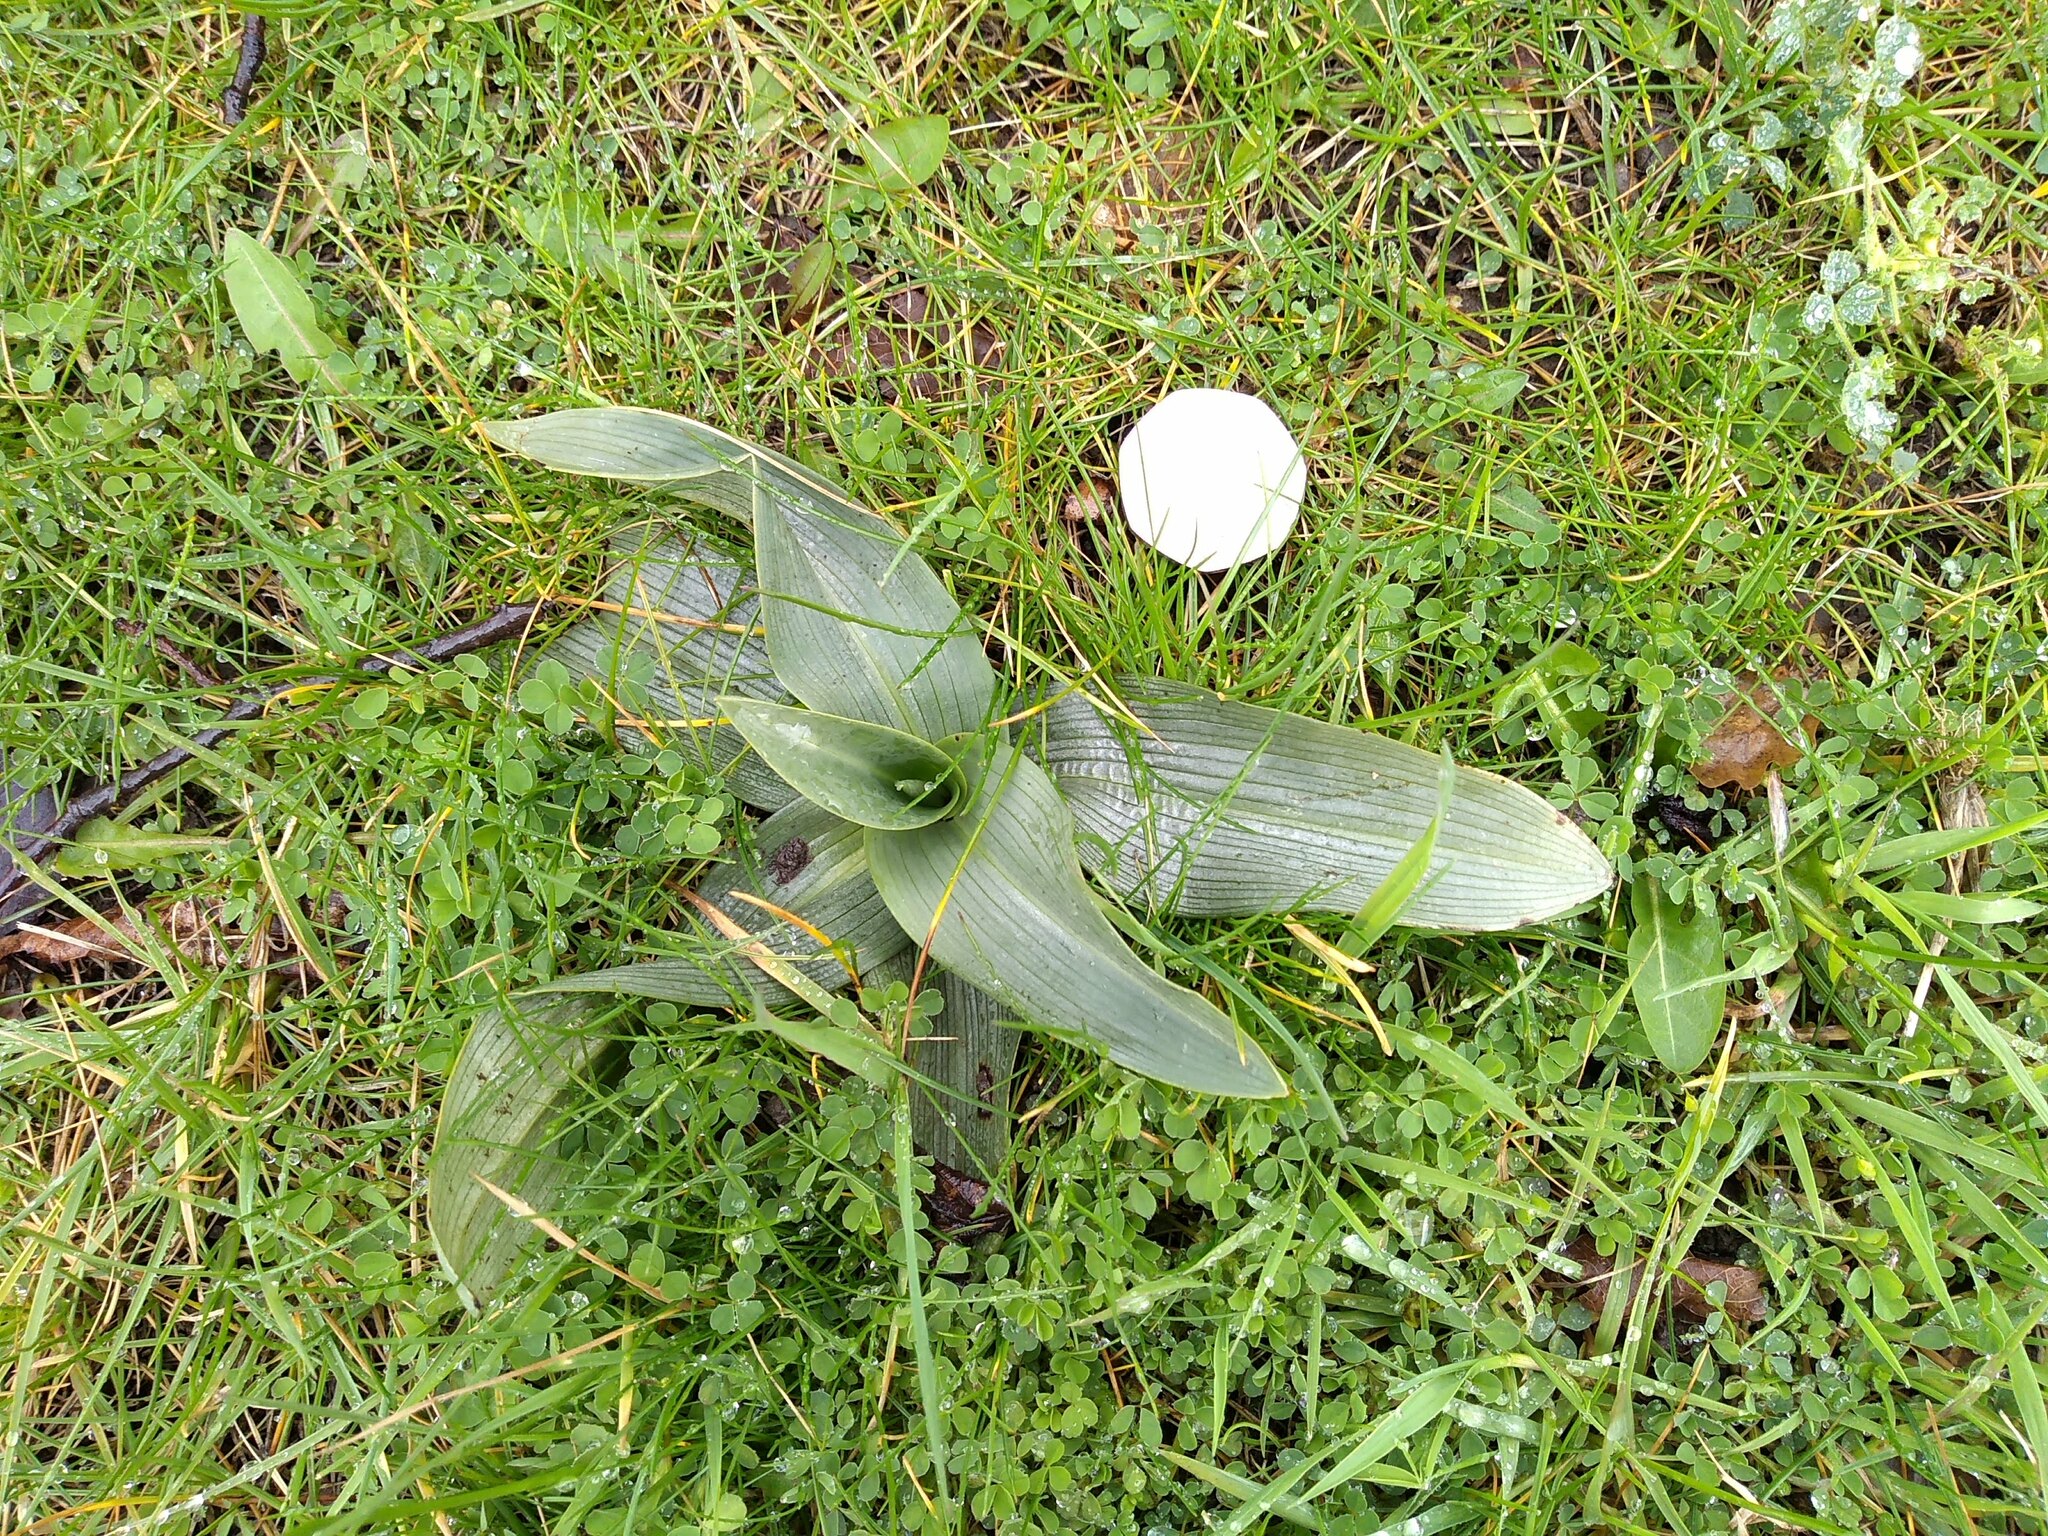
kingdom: Plantae
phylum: Tracheophyta
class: Liliopsida
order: Asparagales
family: Orchidaceae
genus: Ophrys
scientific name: Ophrys apifera
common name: Bee orchid
